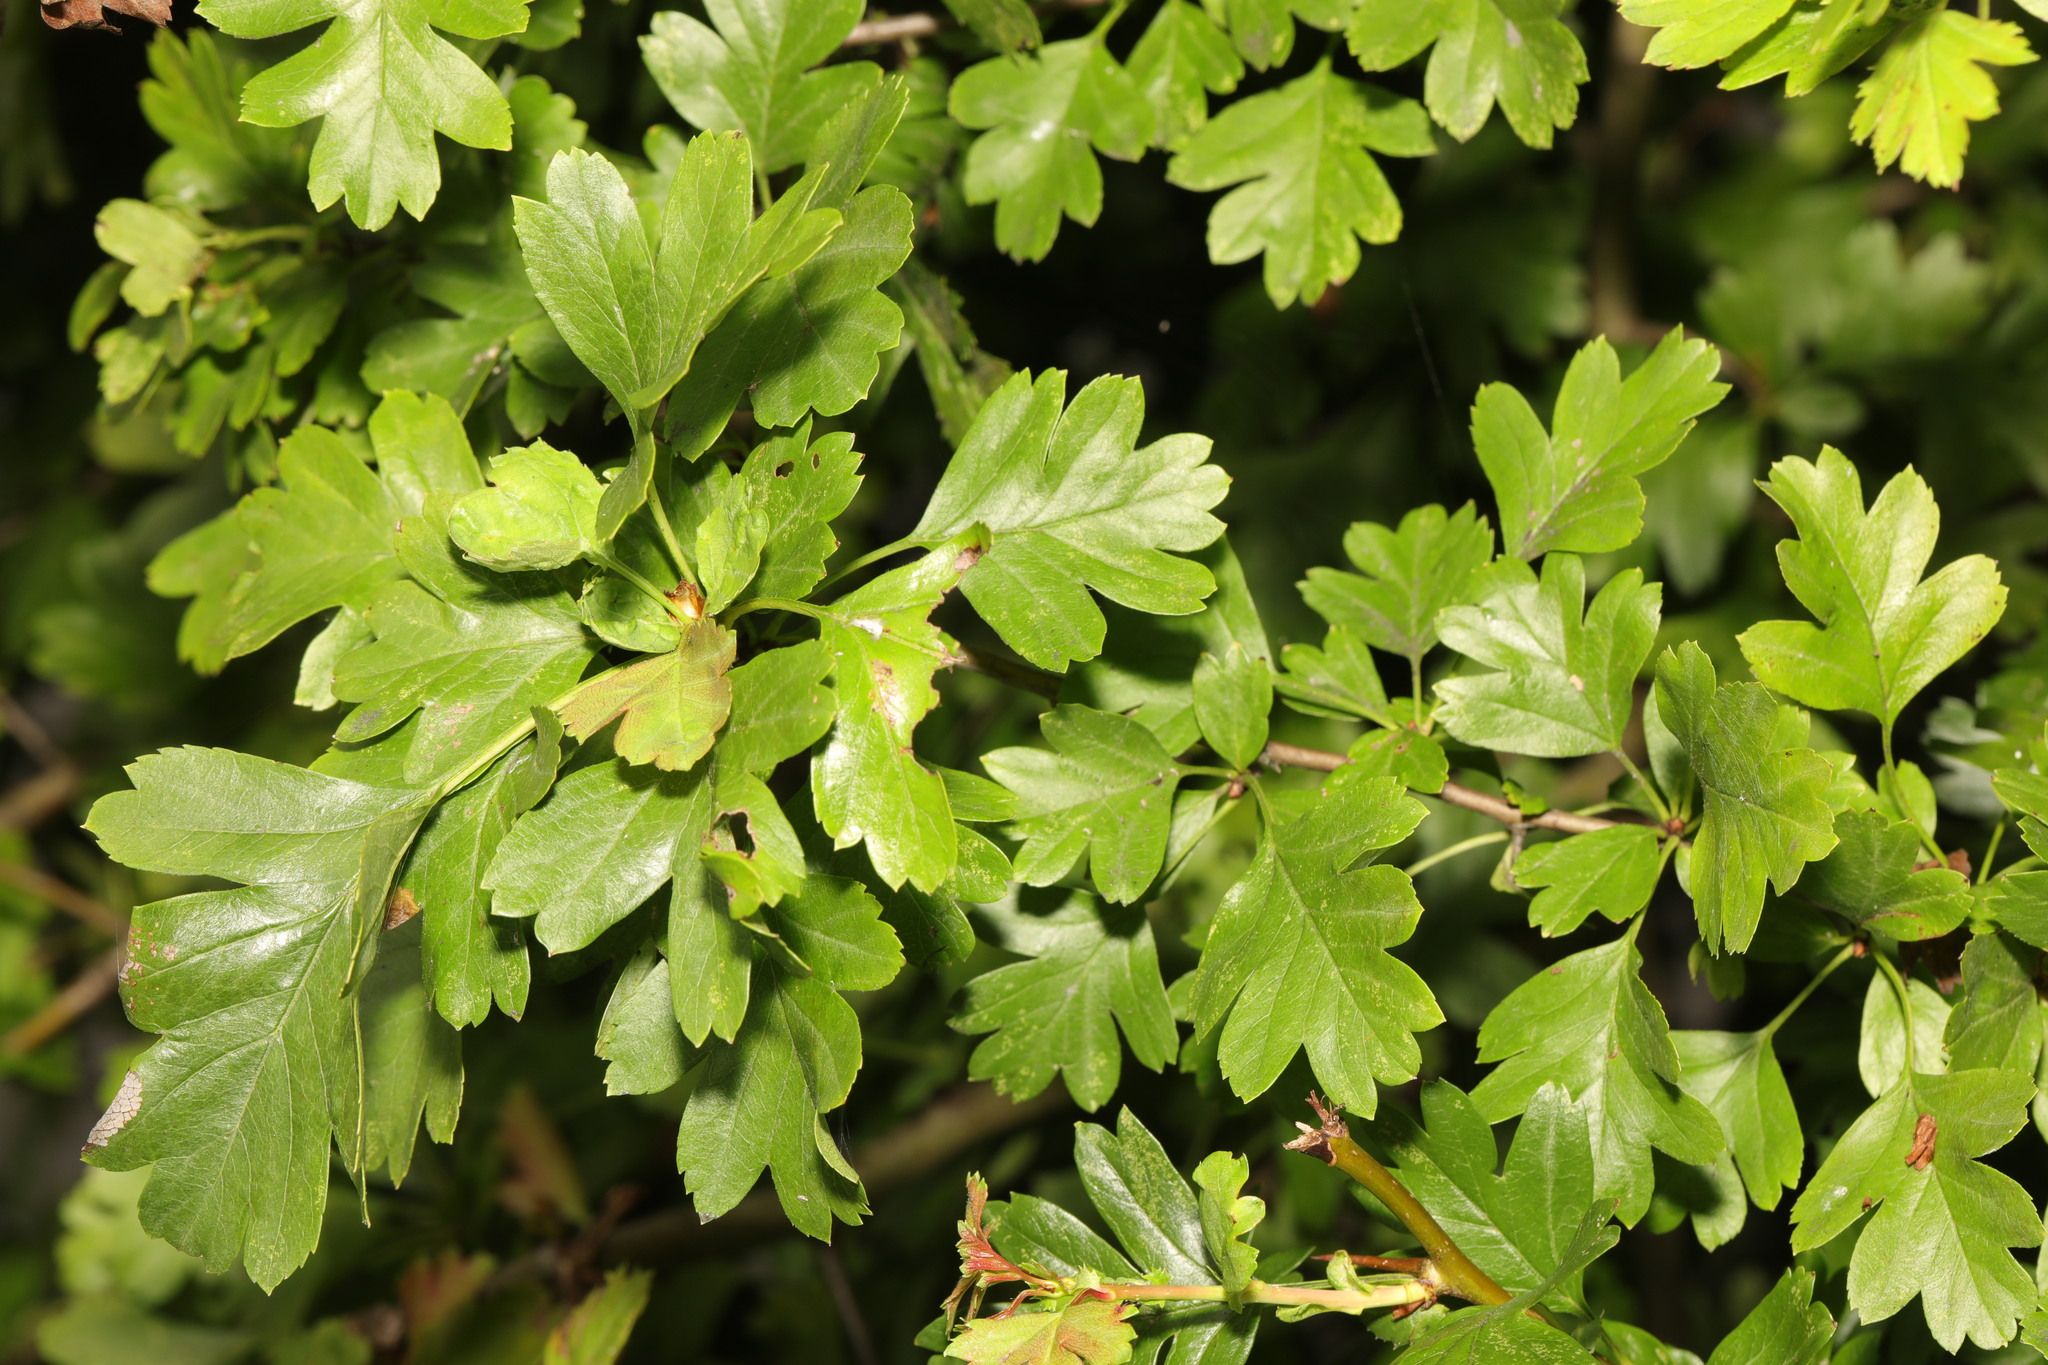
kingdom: Plantae
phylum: Tracheophyta
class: Magnoliopsida
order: Rosales
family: Rosaceae
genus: Crataegus
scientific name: Crataegus monogyna
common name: Hawthorn
